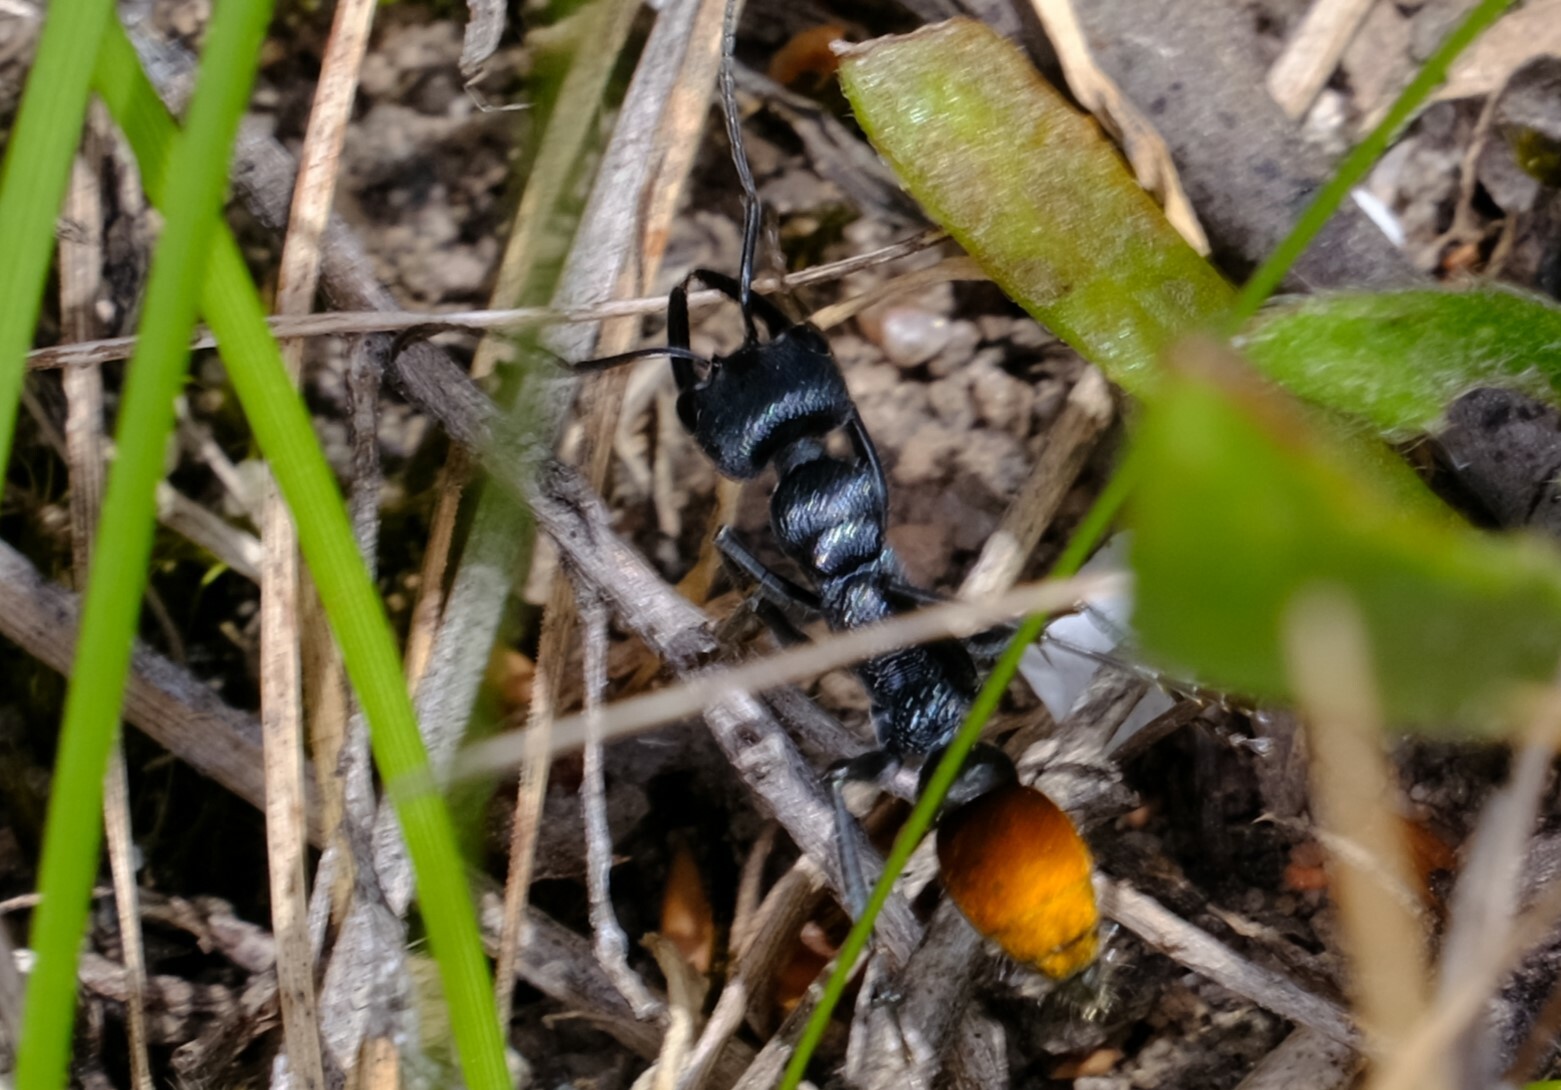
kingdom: Animalia
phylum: Arthropoda
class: Insecta
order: Hymenoptera
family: Formicidae
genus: Myrmecia
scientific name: Myrmecia mandibularis
